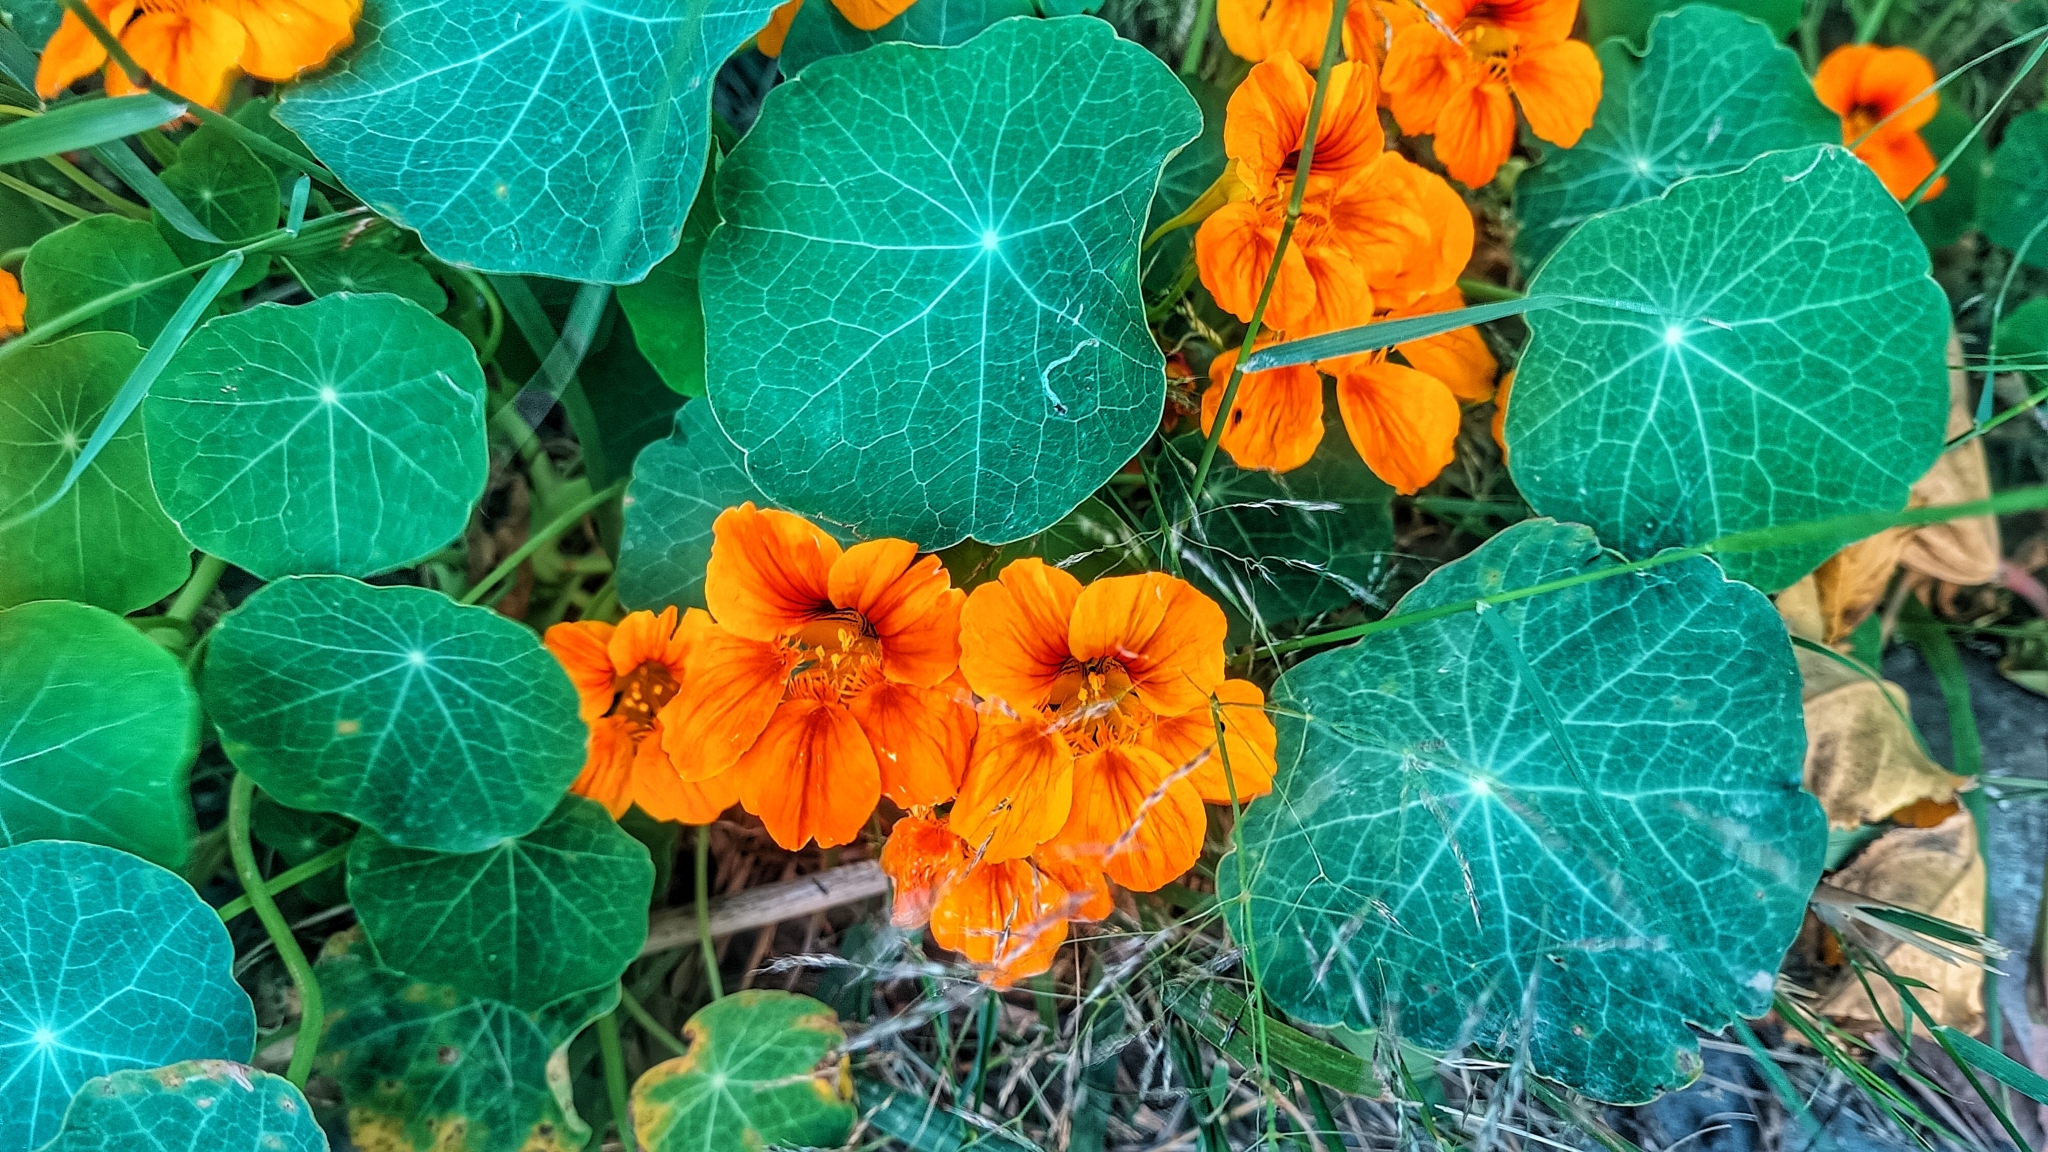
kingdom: Plantae
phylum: Tracheophyta
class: Magnoliopsida
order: Brassicales
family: Tropaeolaceae
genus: Tropaeolum
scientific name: Tropaeolum majus
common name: Nasturtium
